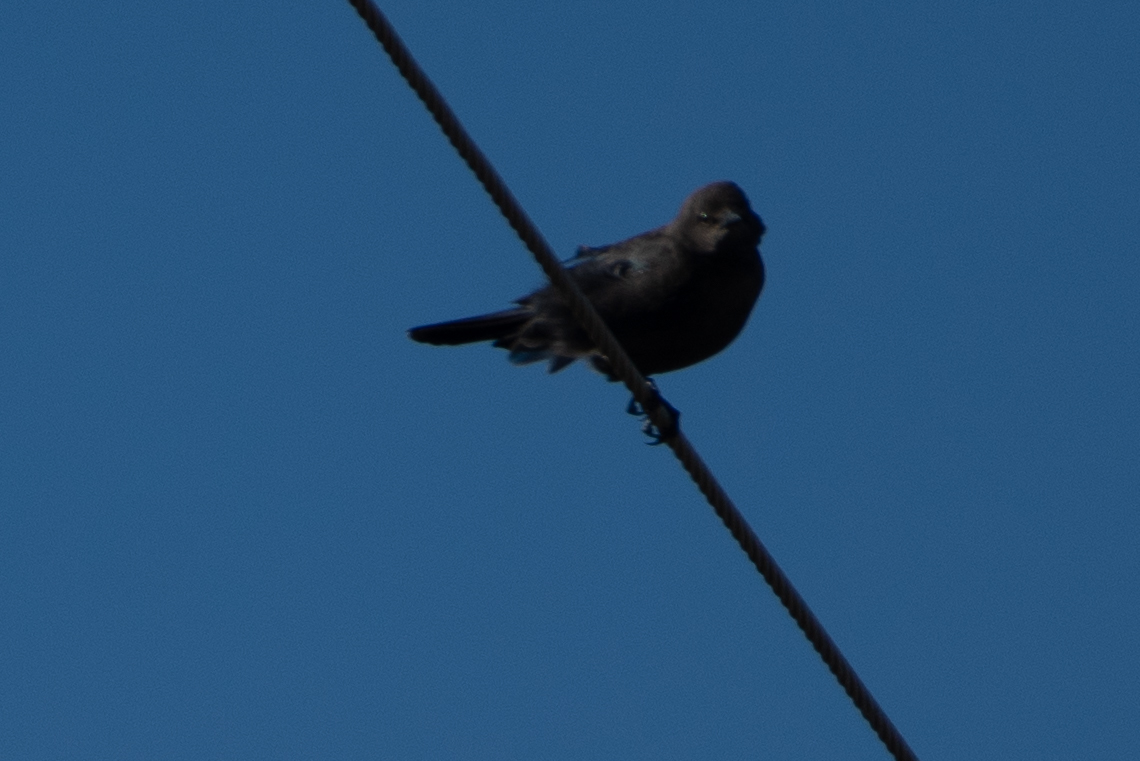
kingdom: Animalia
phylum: Chordata
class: Aves
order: Passeriformes
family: Icteridae
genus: Euphagus
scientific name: Euphagus cyanocephalus
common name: Brewer's blackbird
